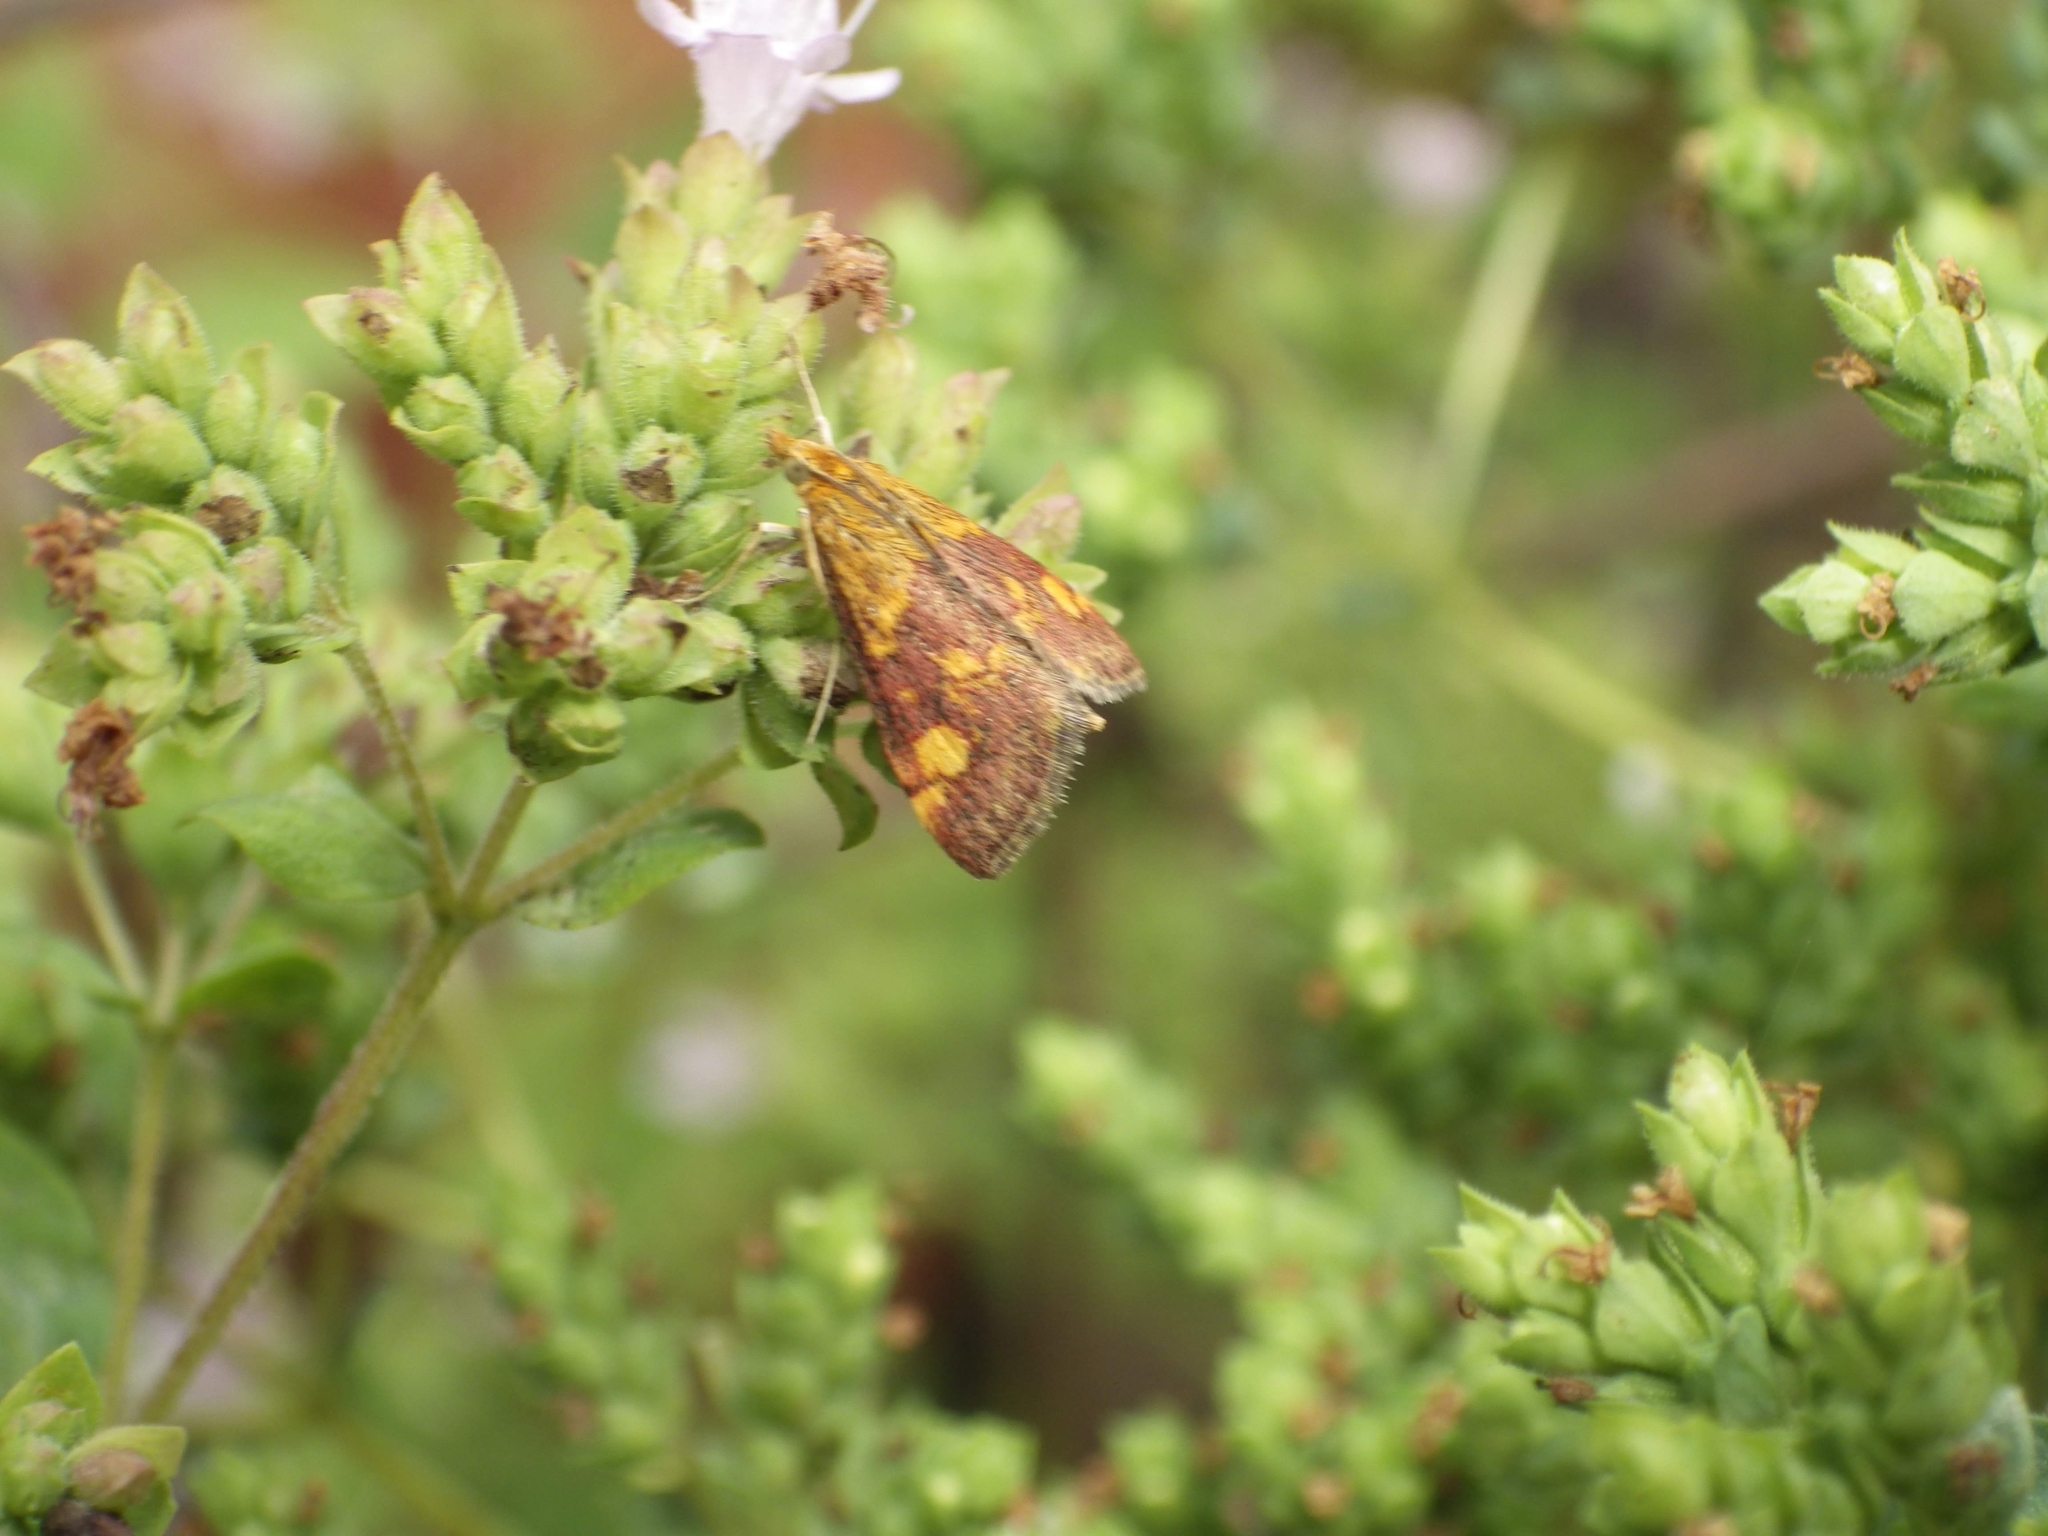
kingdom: Animalia
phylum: Arthropoda
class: Insecta
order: Lepidoptera
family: Crambidae
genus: Pyrausta
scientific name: Pyrausta aurata
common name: Small purple & gold
